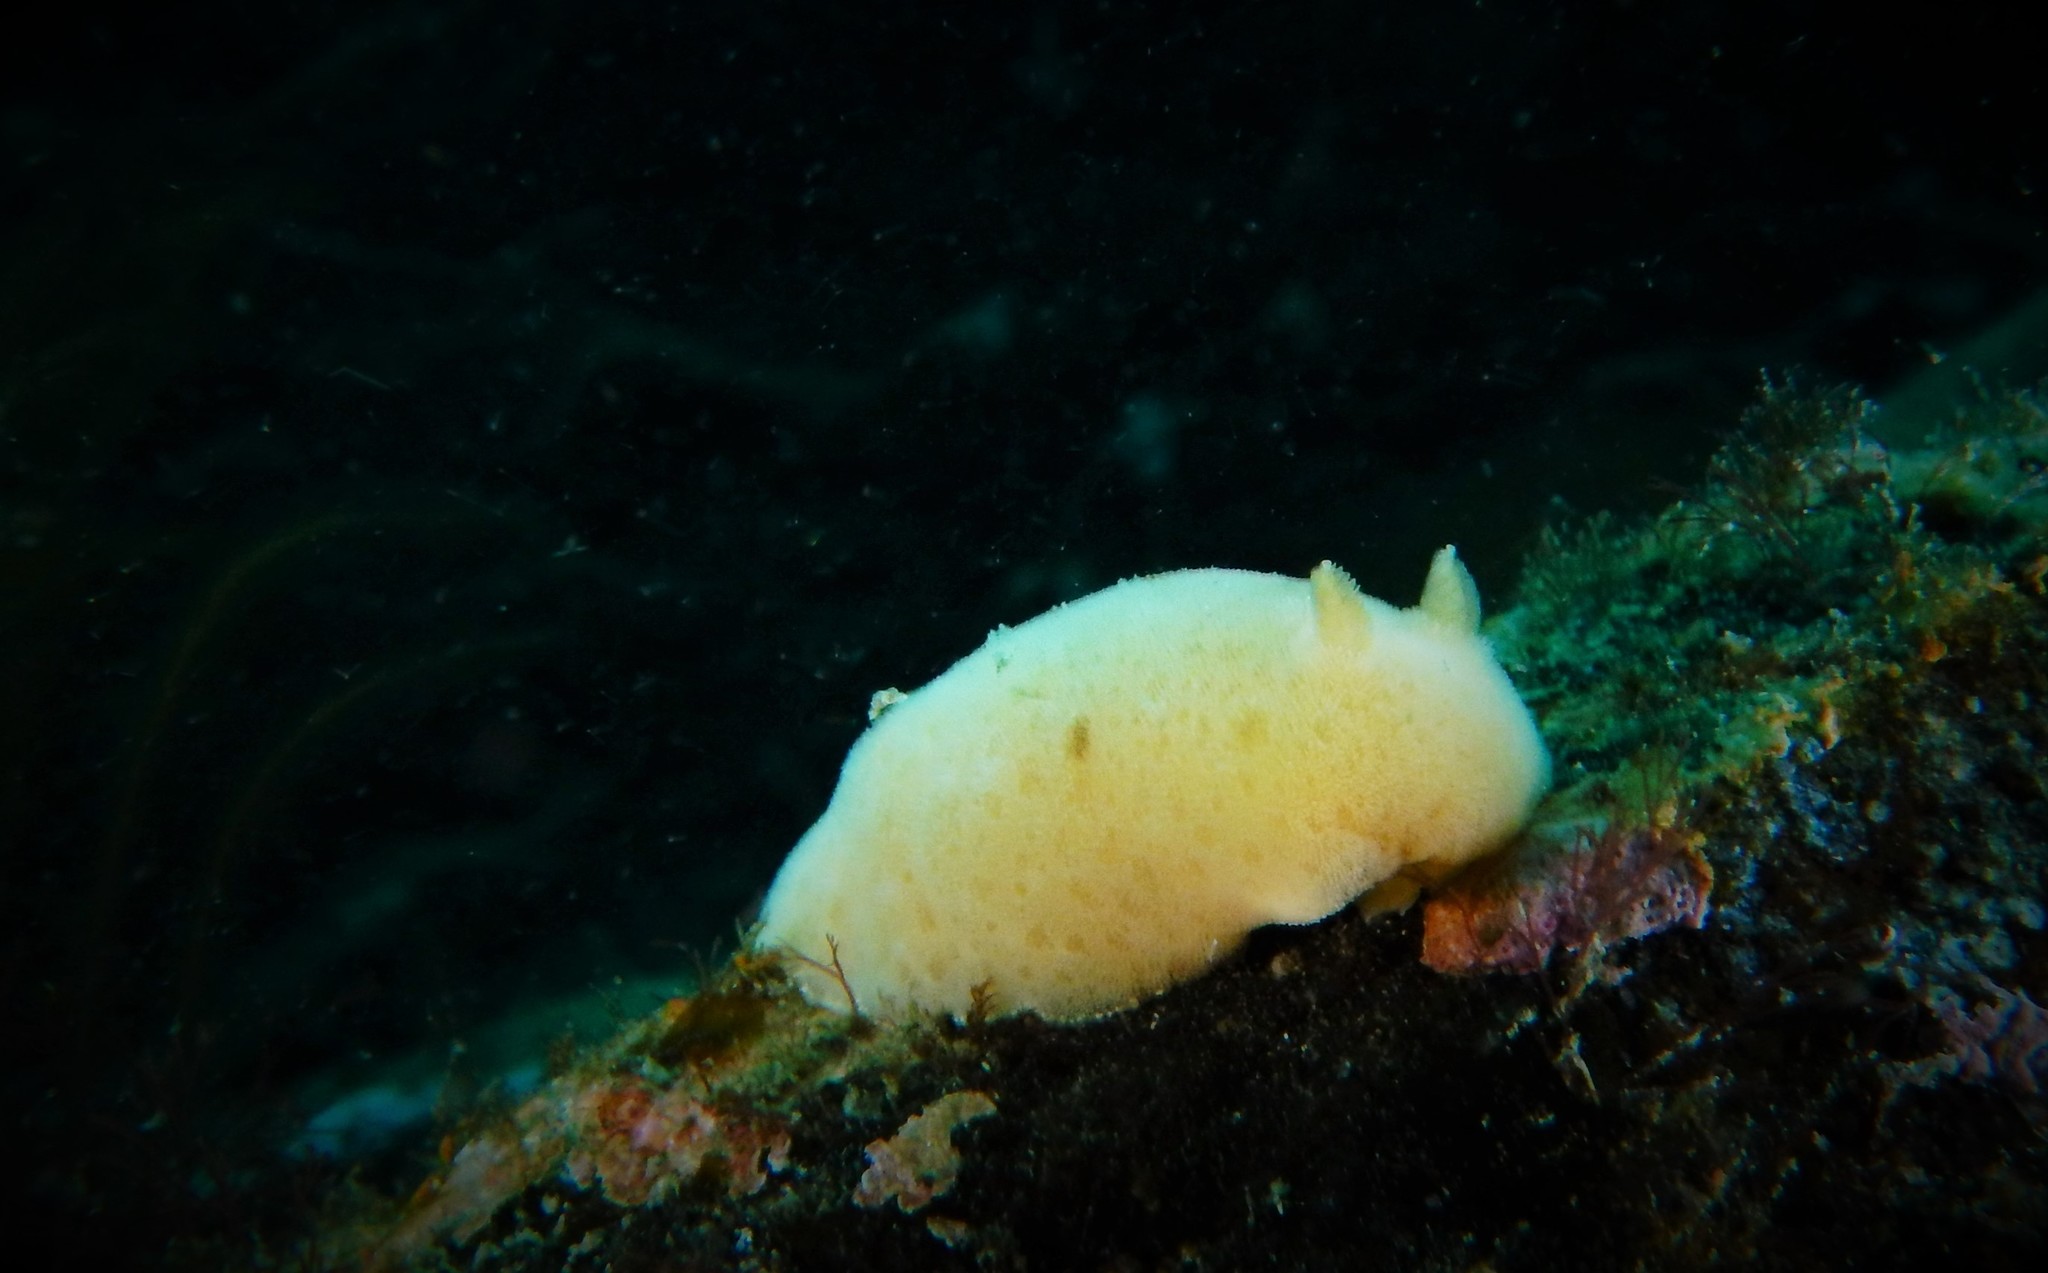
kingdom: Animalia
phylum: Mollusca
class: Gastropoda
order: Nudibranchia
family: Discodorididae
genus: Jorunna
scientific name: Jorunna tomentosa
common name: Grey sea slug
